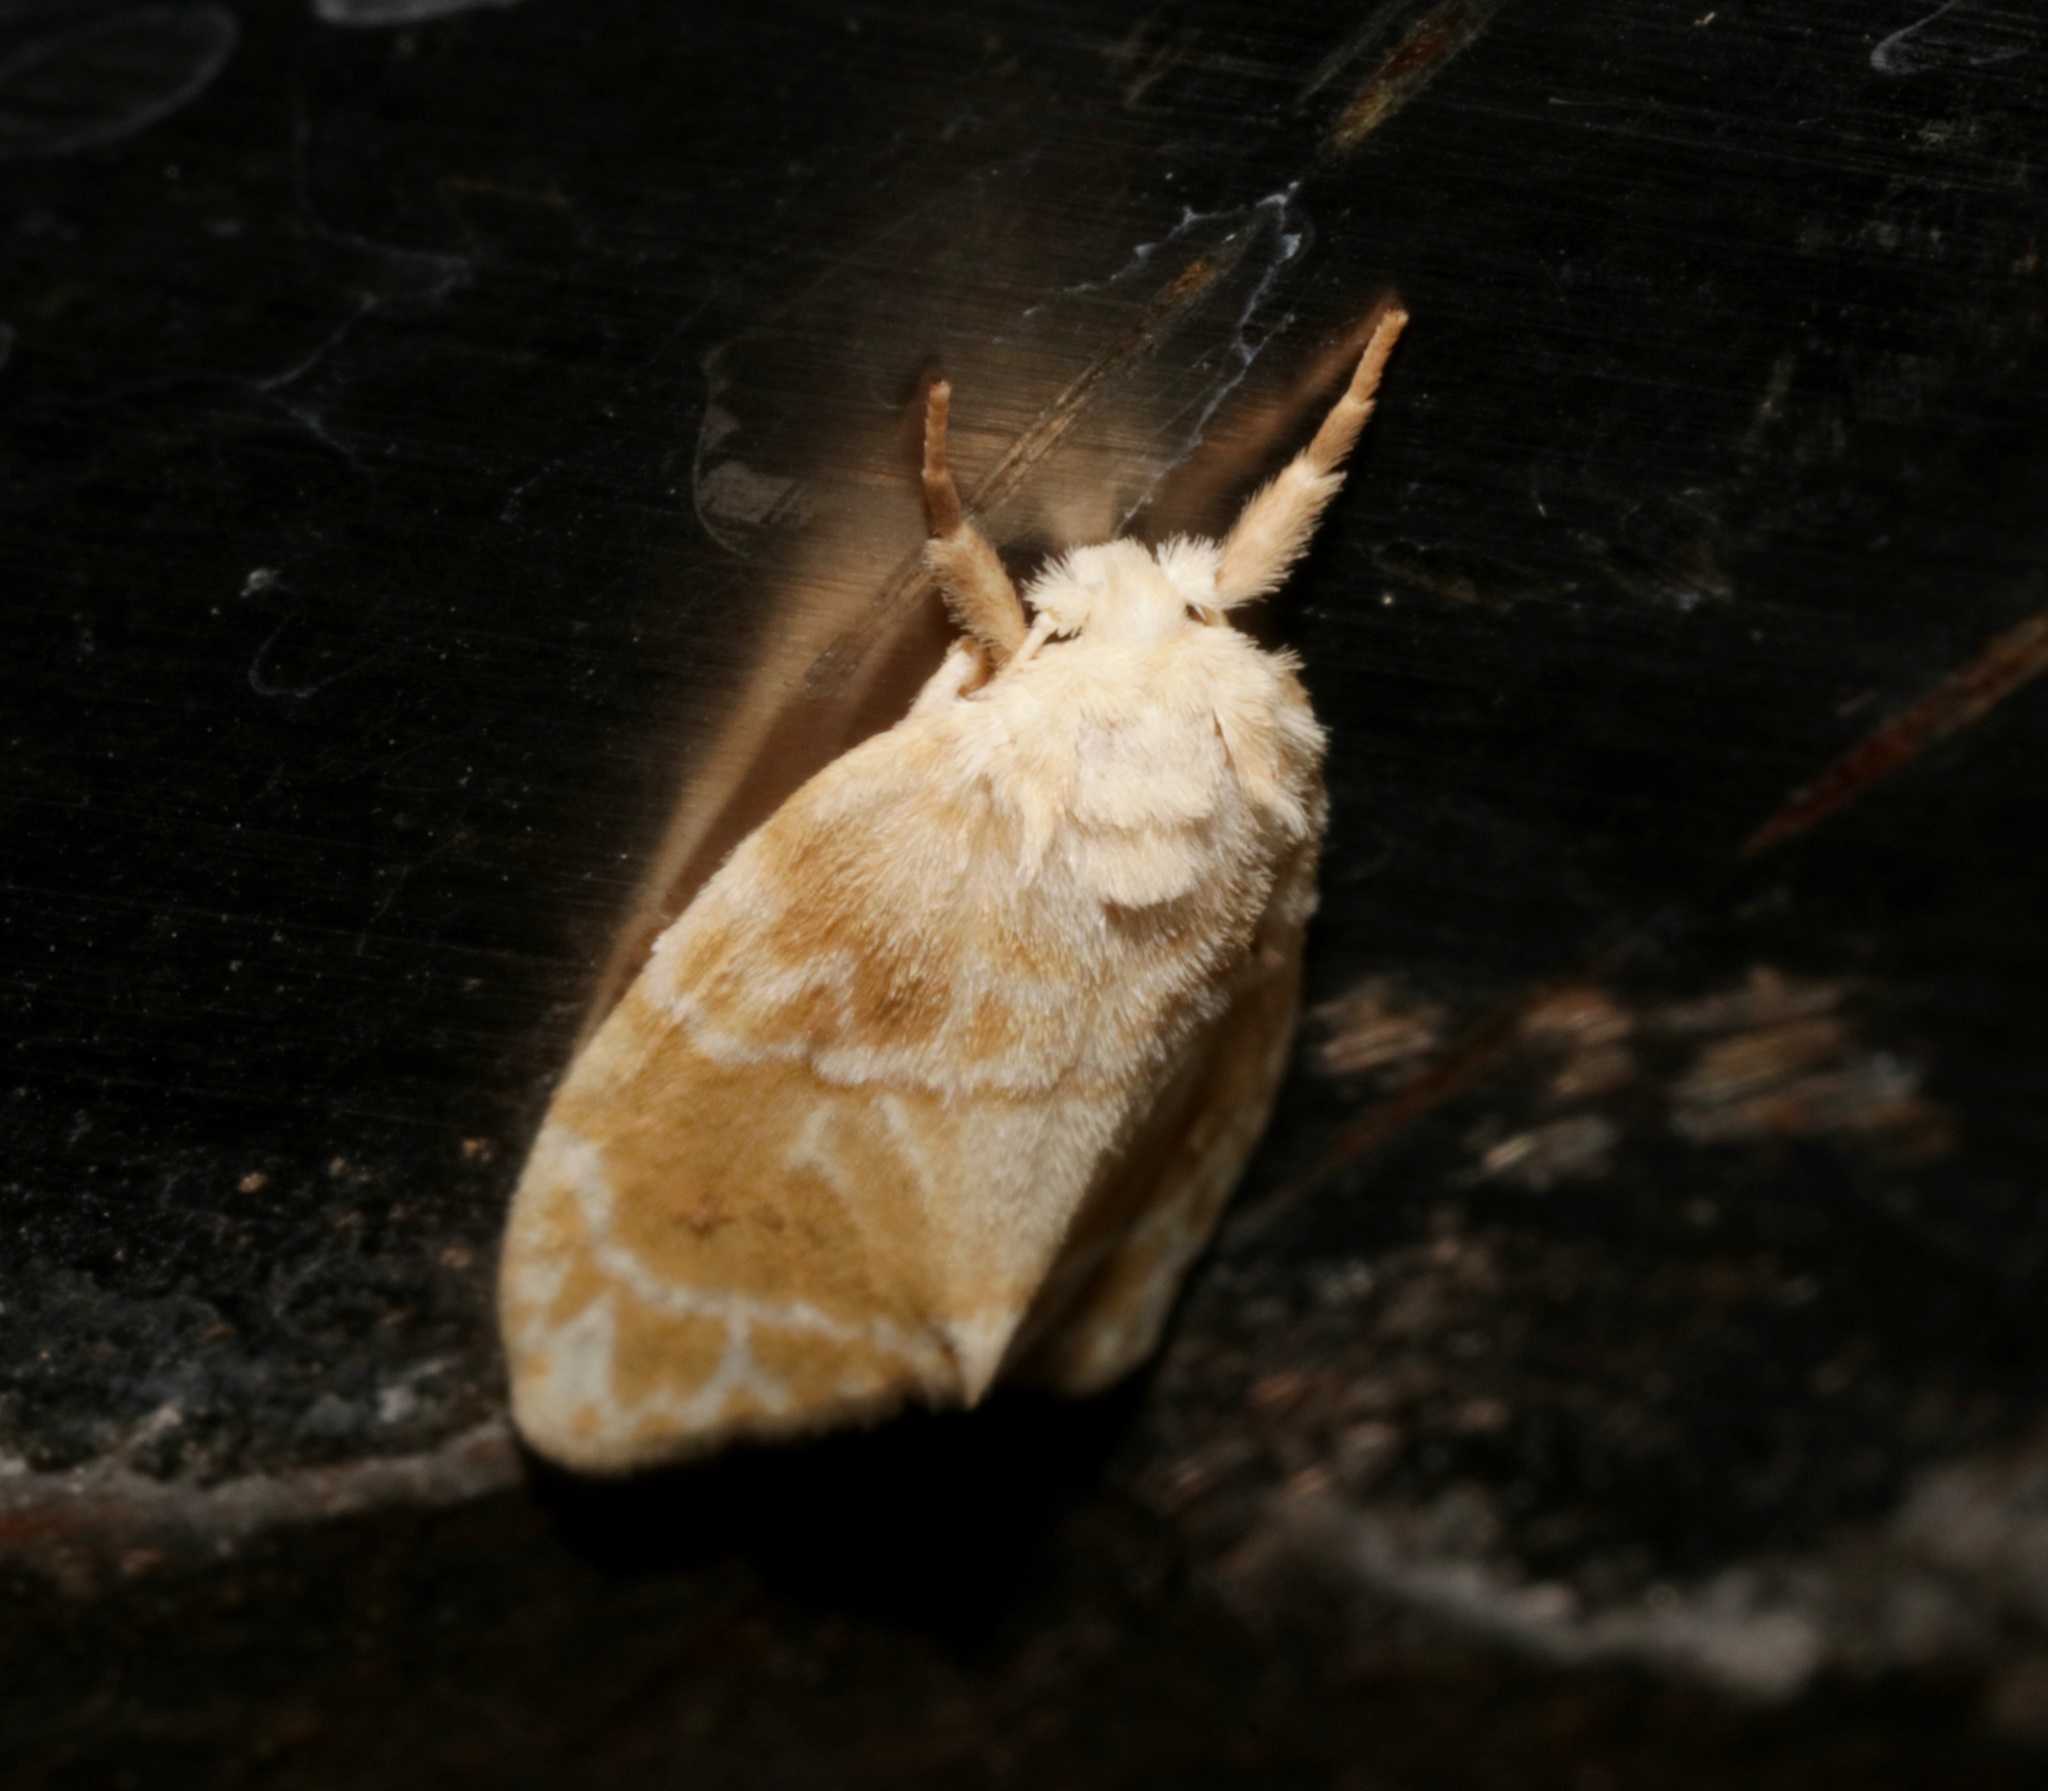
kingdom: Animalia
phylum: Arthropoda
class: Insecta
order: Lepidoptera
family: Erebidae
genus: Schistophleps
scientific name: Schistophleps bipuncta
